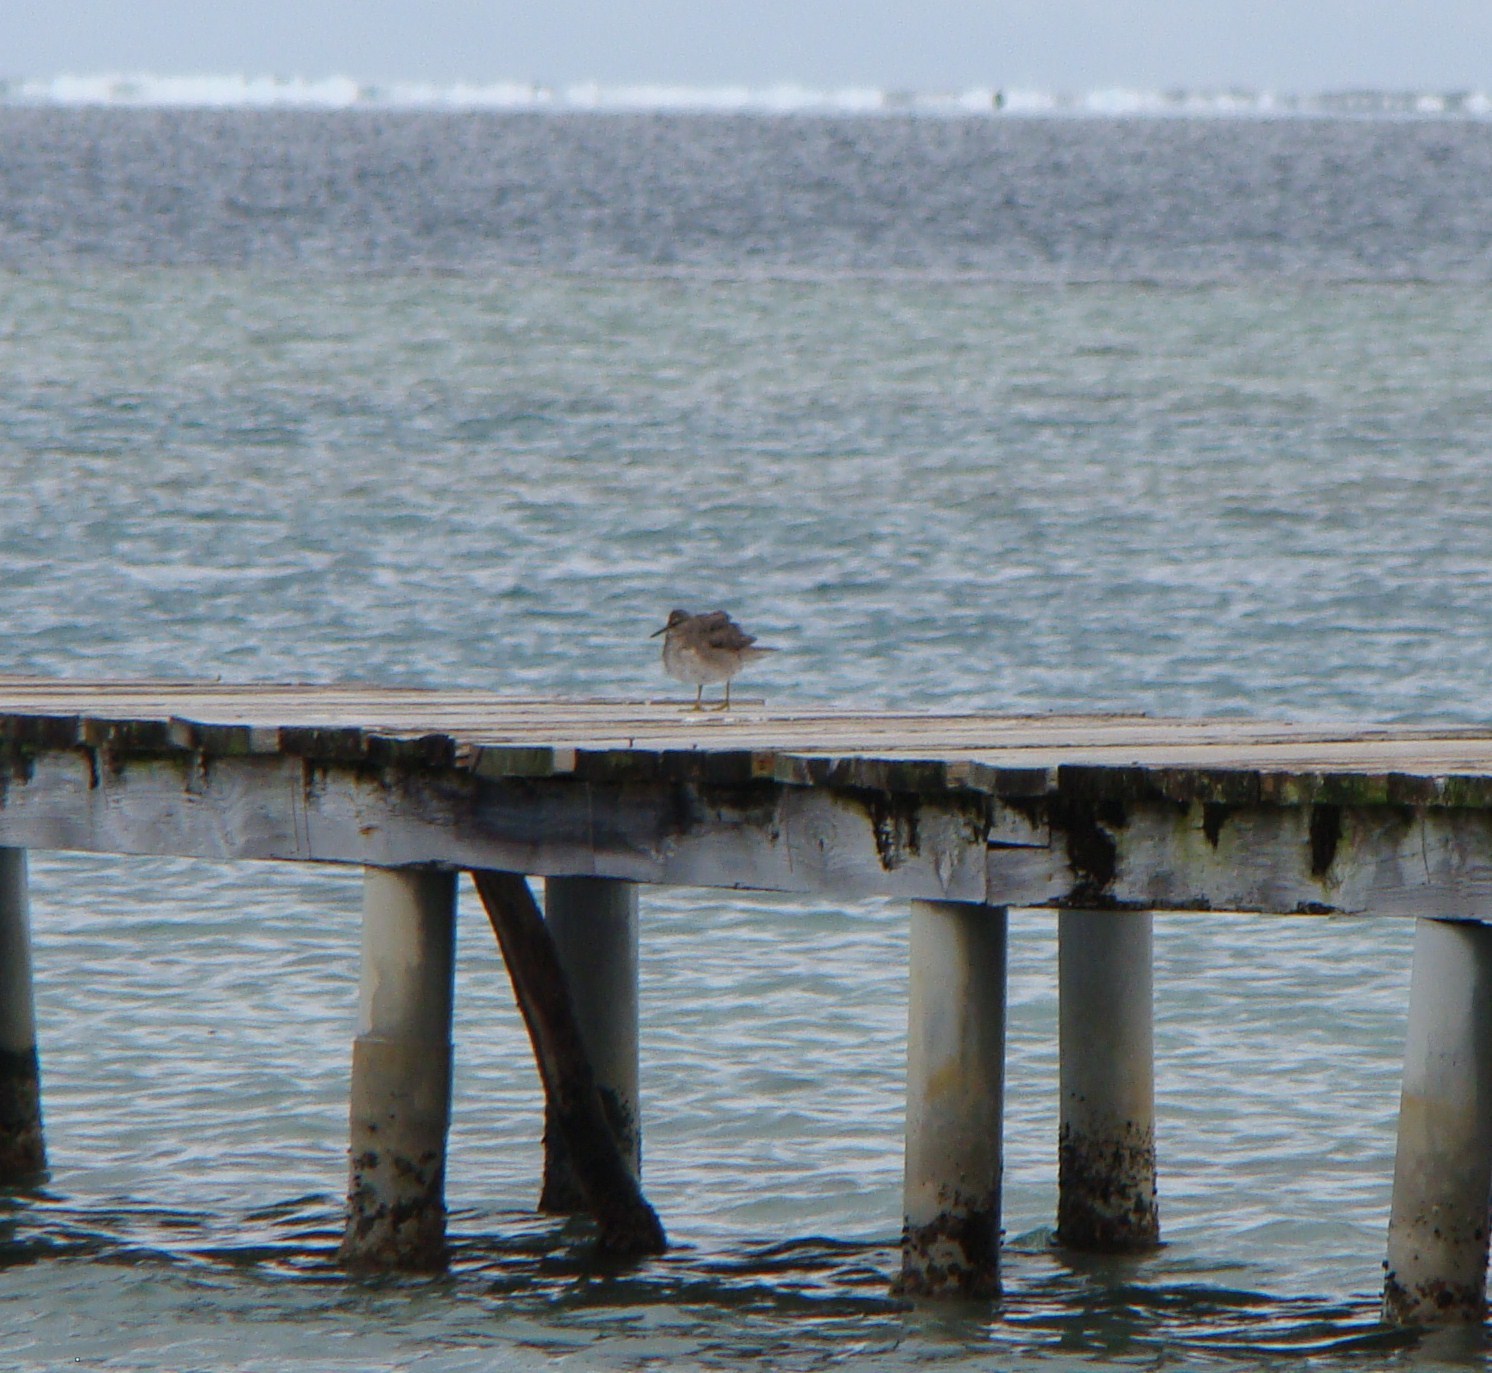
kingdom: Animalia
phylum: Chordata
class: Aves
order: Charadriiformes
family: Scolopacidae
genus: Tringa
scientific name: Tringa incana
